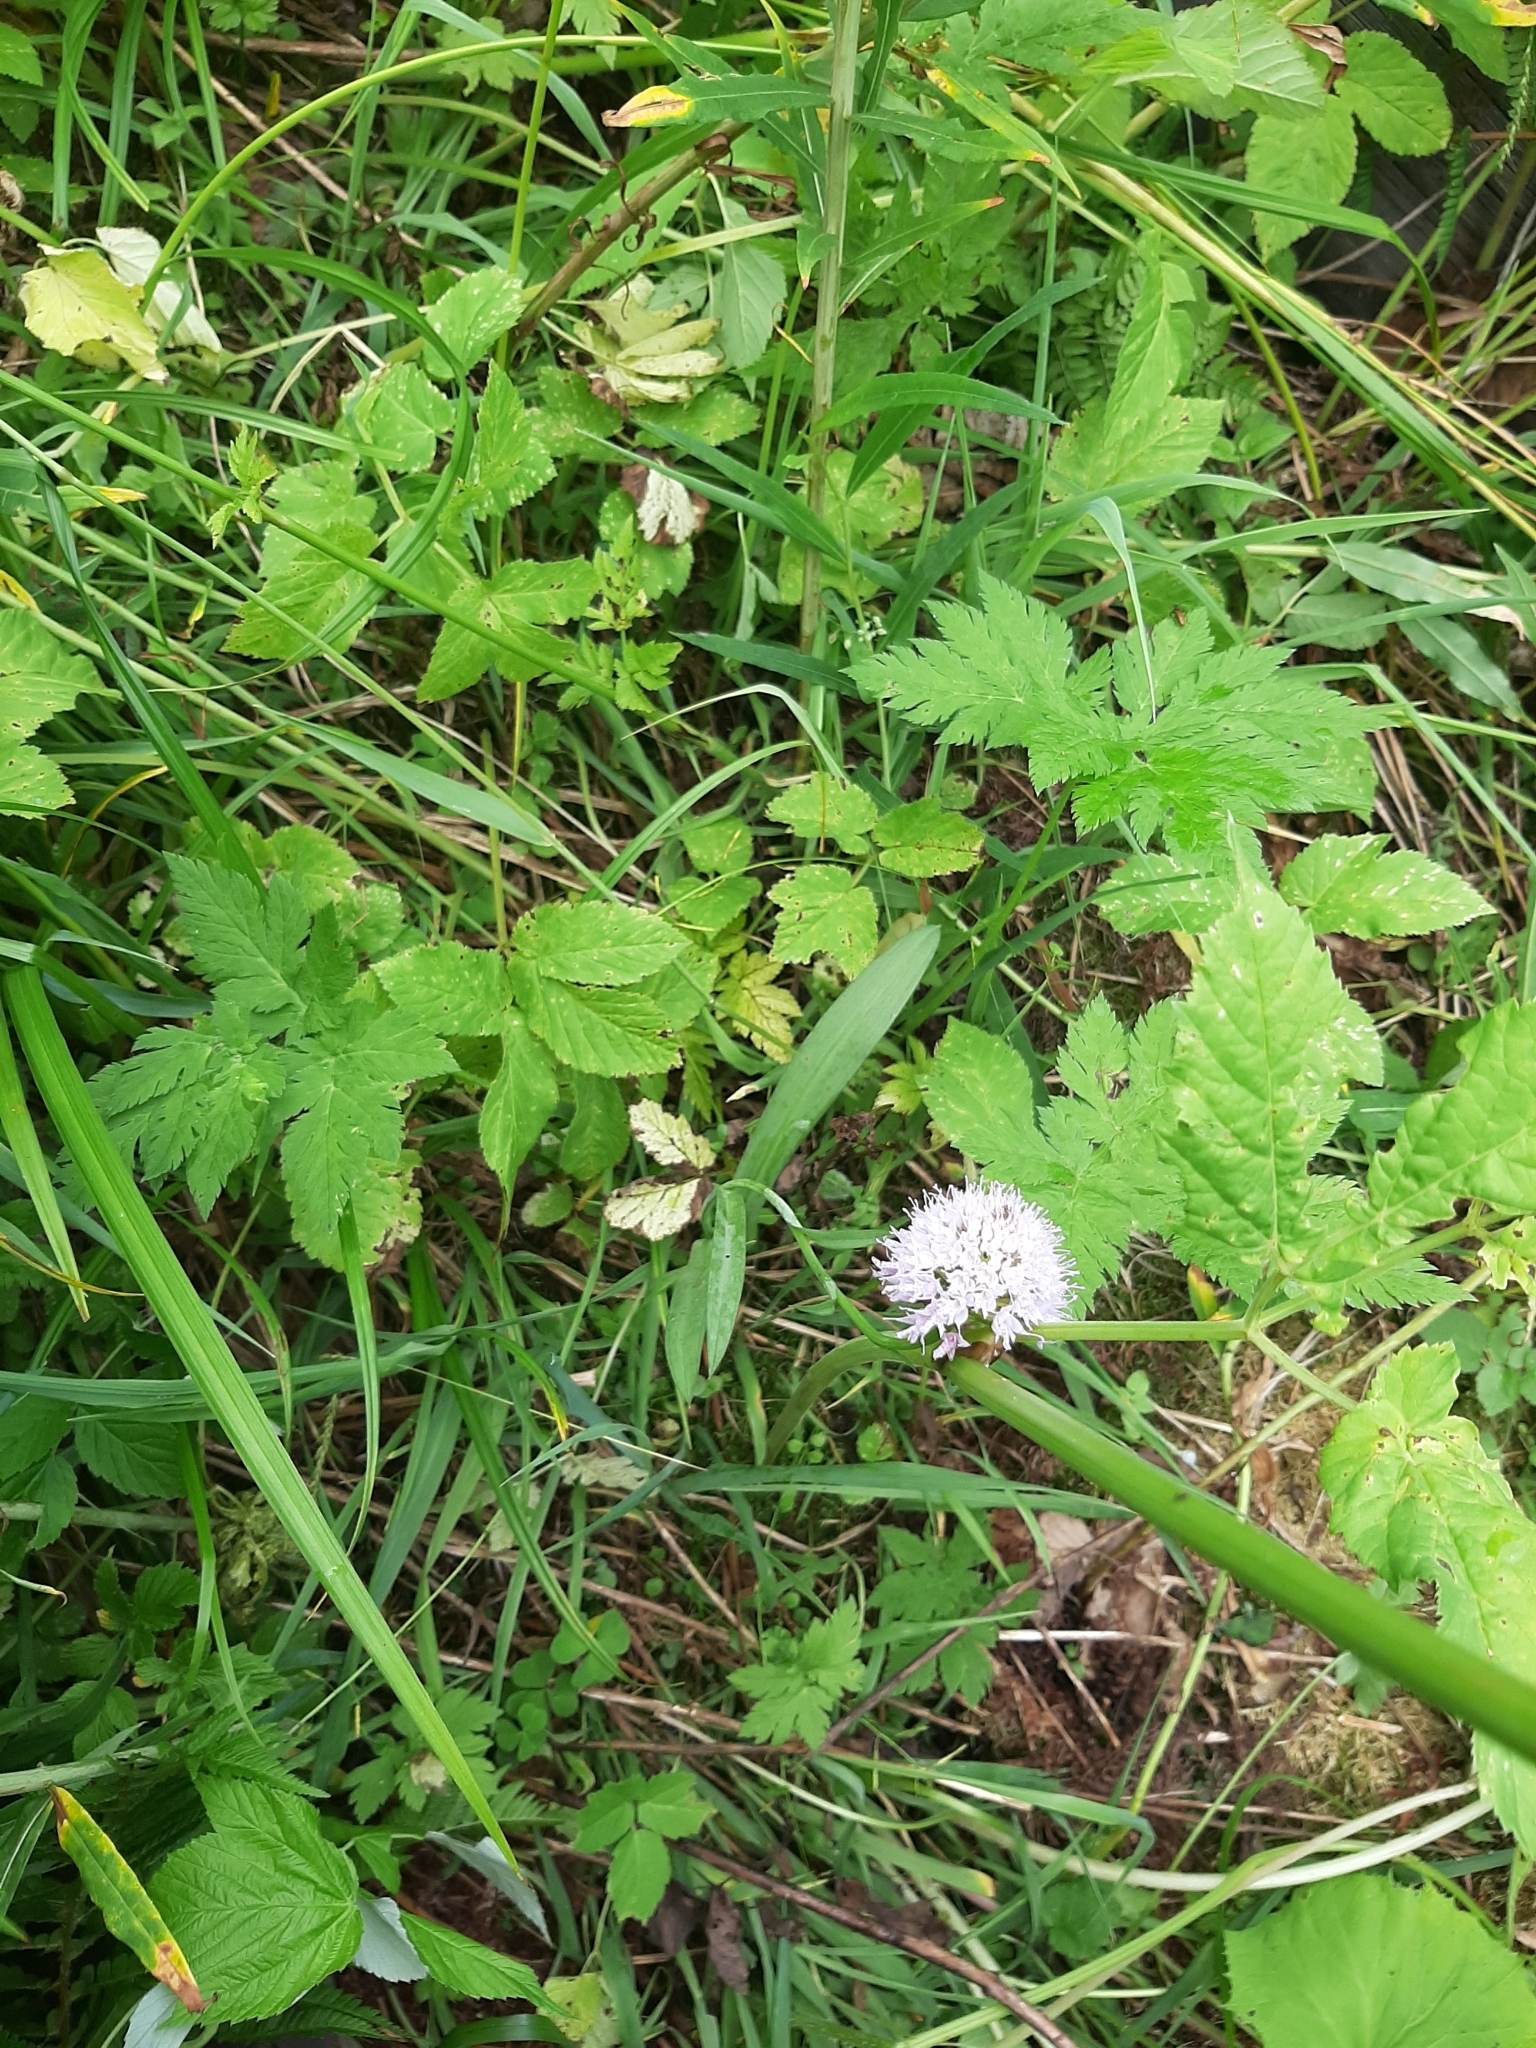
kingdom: Plantae
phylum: Tracheophyta
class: Liliopsida
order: Asparagales
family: Orchidaceae
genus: Traunsteinera
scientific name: Traunsteinera globosa
